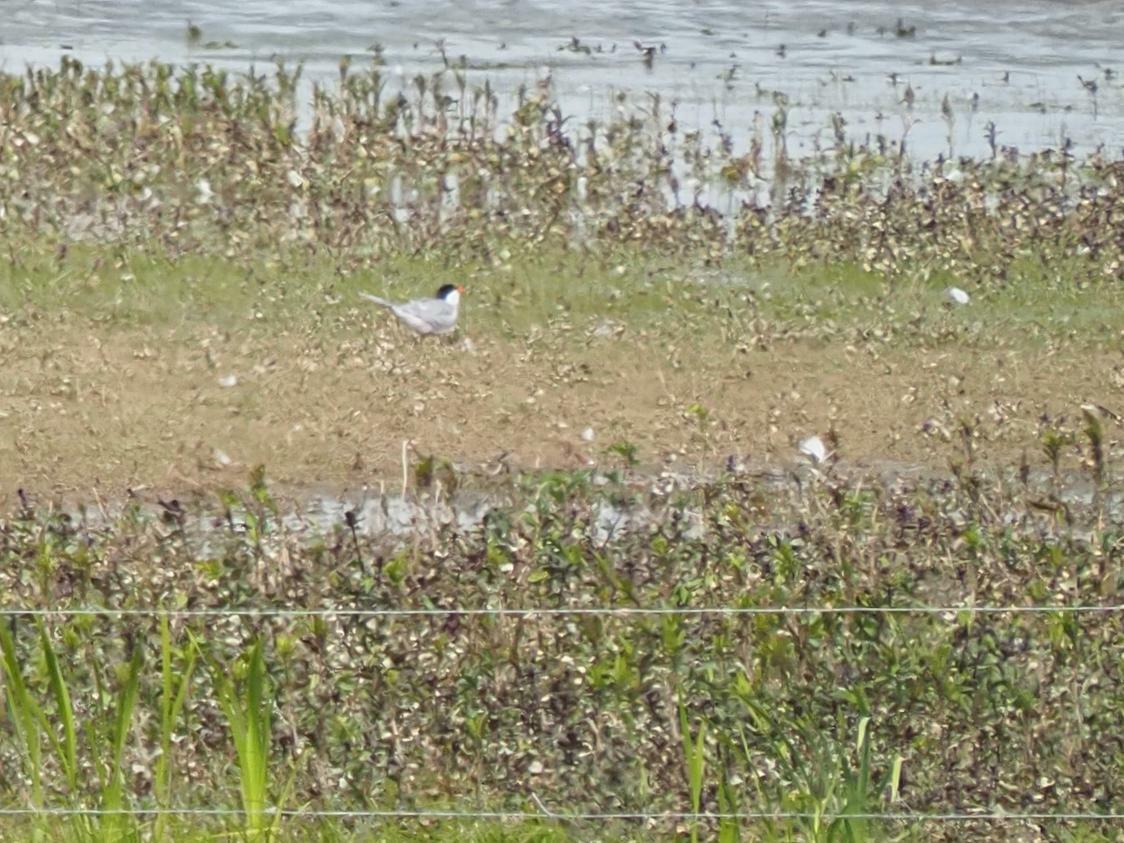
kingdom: Animalia
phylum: Chordata
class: Aves
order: Charadriiformes
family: Laridae
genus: Sterna
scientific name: Sterna hirundo
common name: Common tern
